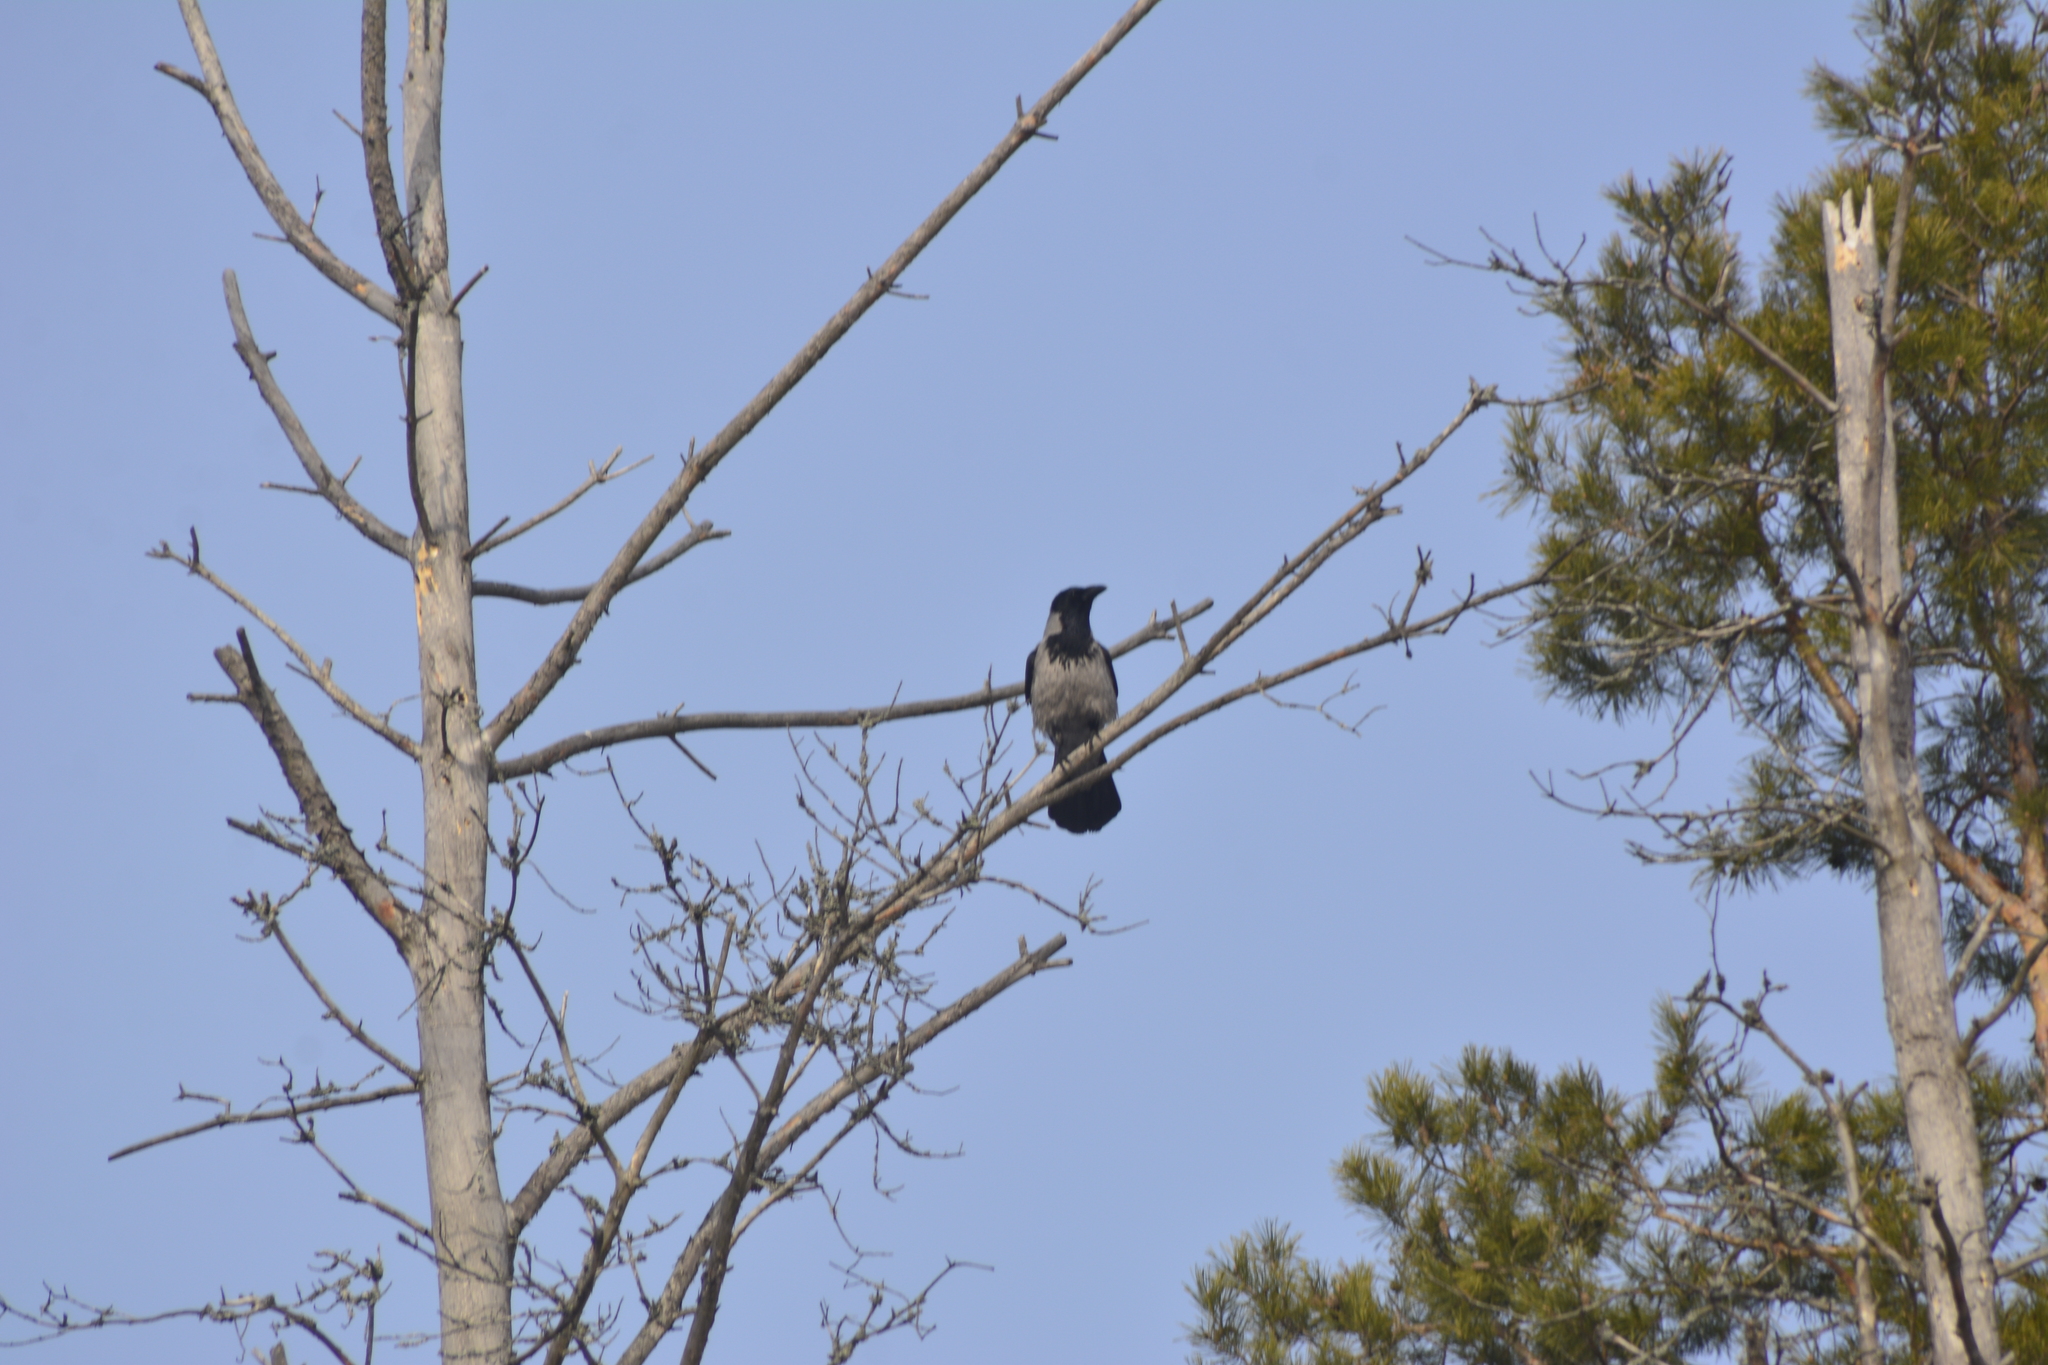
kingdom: Animalia
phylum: Chordata
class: Aves
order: Passeriformes
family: Corvidae
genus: Corvus
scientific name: Corvus cornix
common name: Hooded crow
